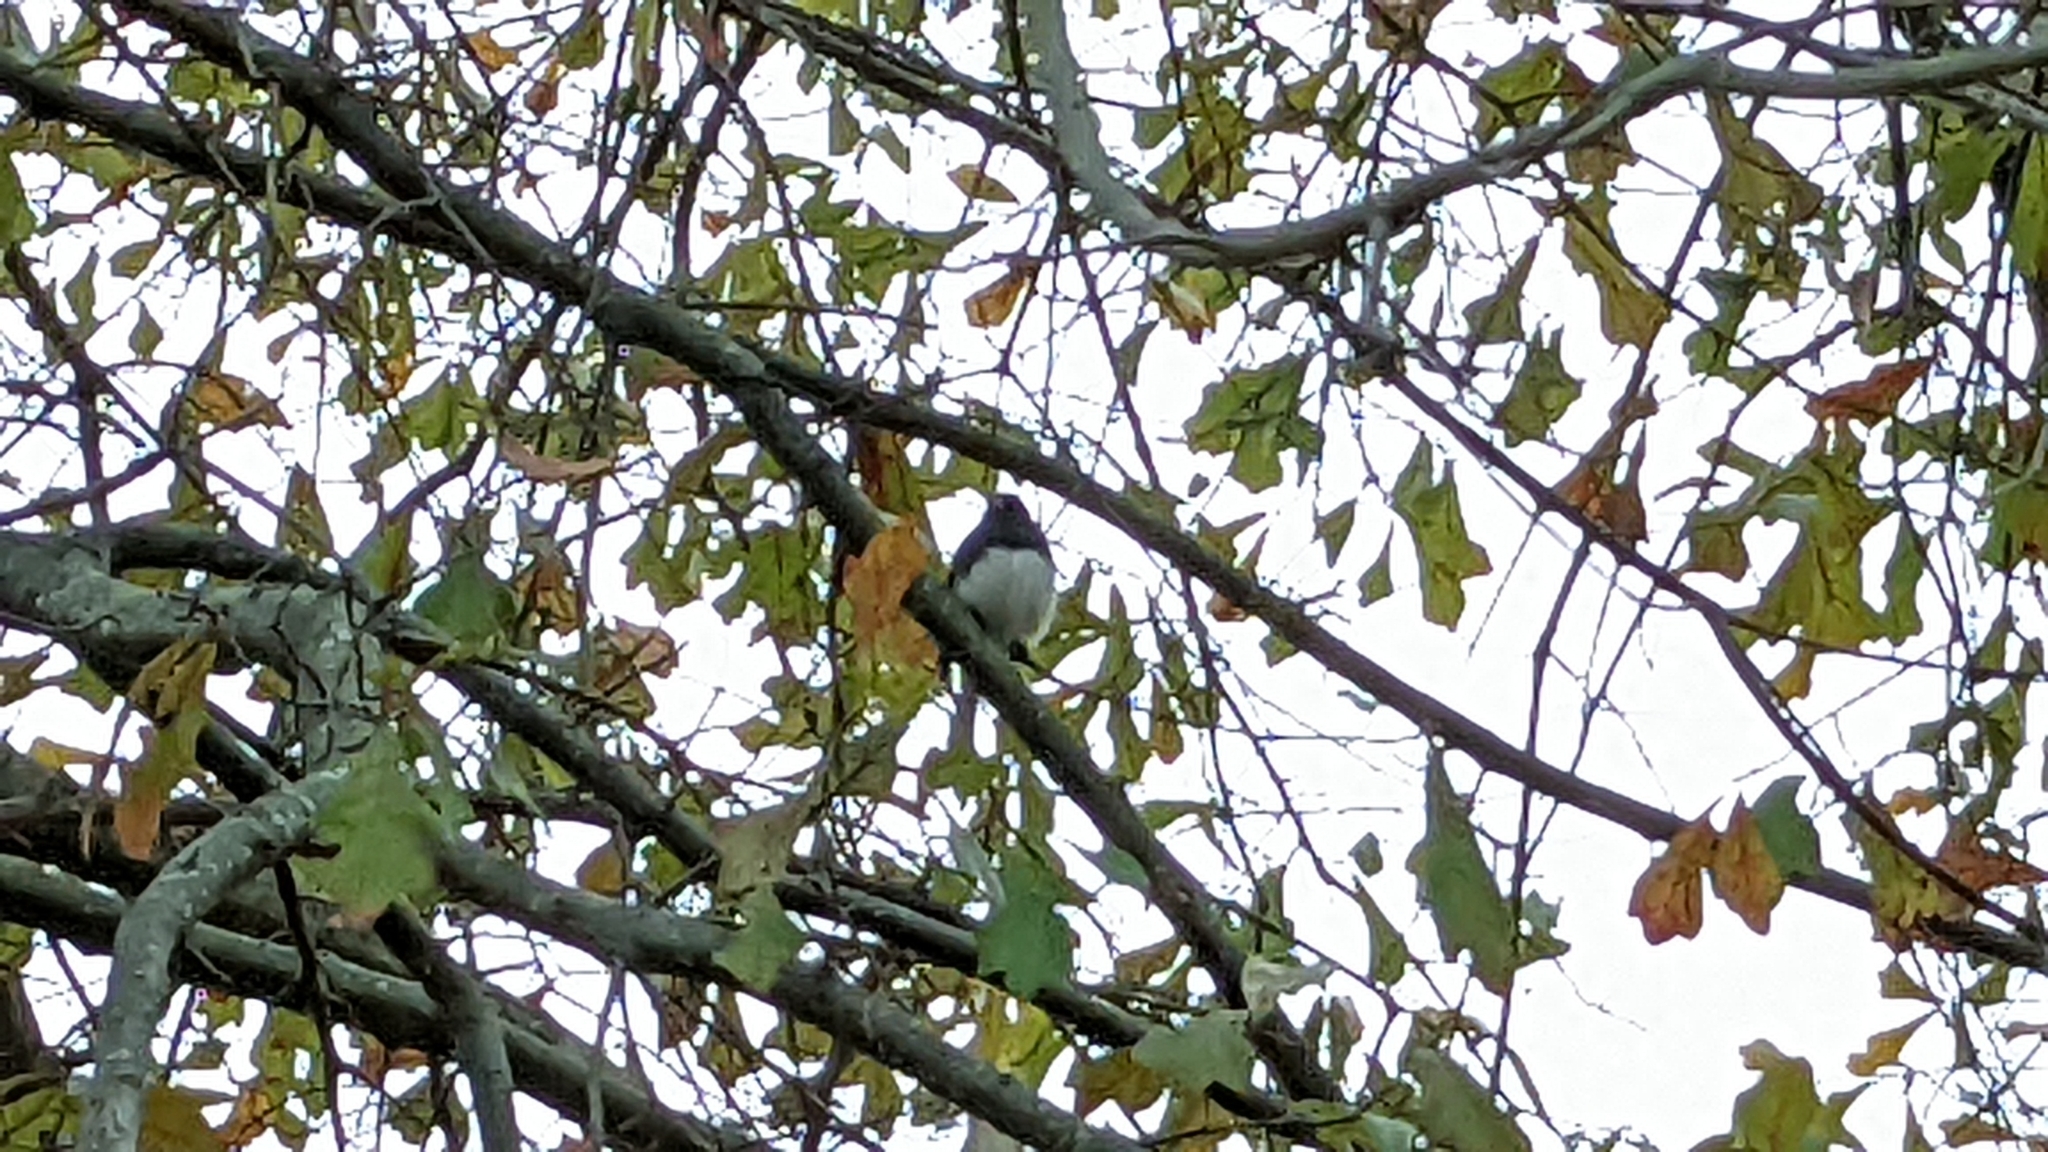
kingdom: Animalia
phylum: Chordata
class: Aves
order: Passeriformes
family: Passerellidae
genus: Junco
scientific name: Junco hyemalis
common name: Dark-eyed junco
